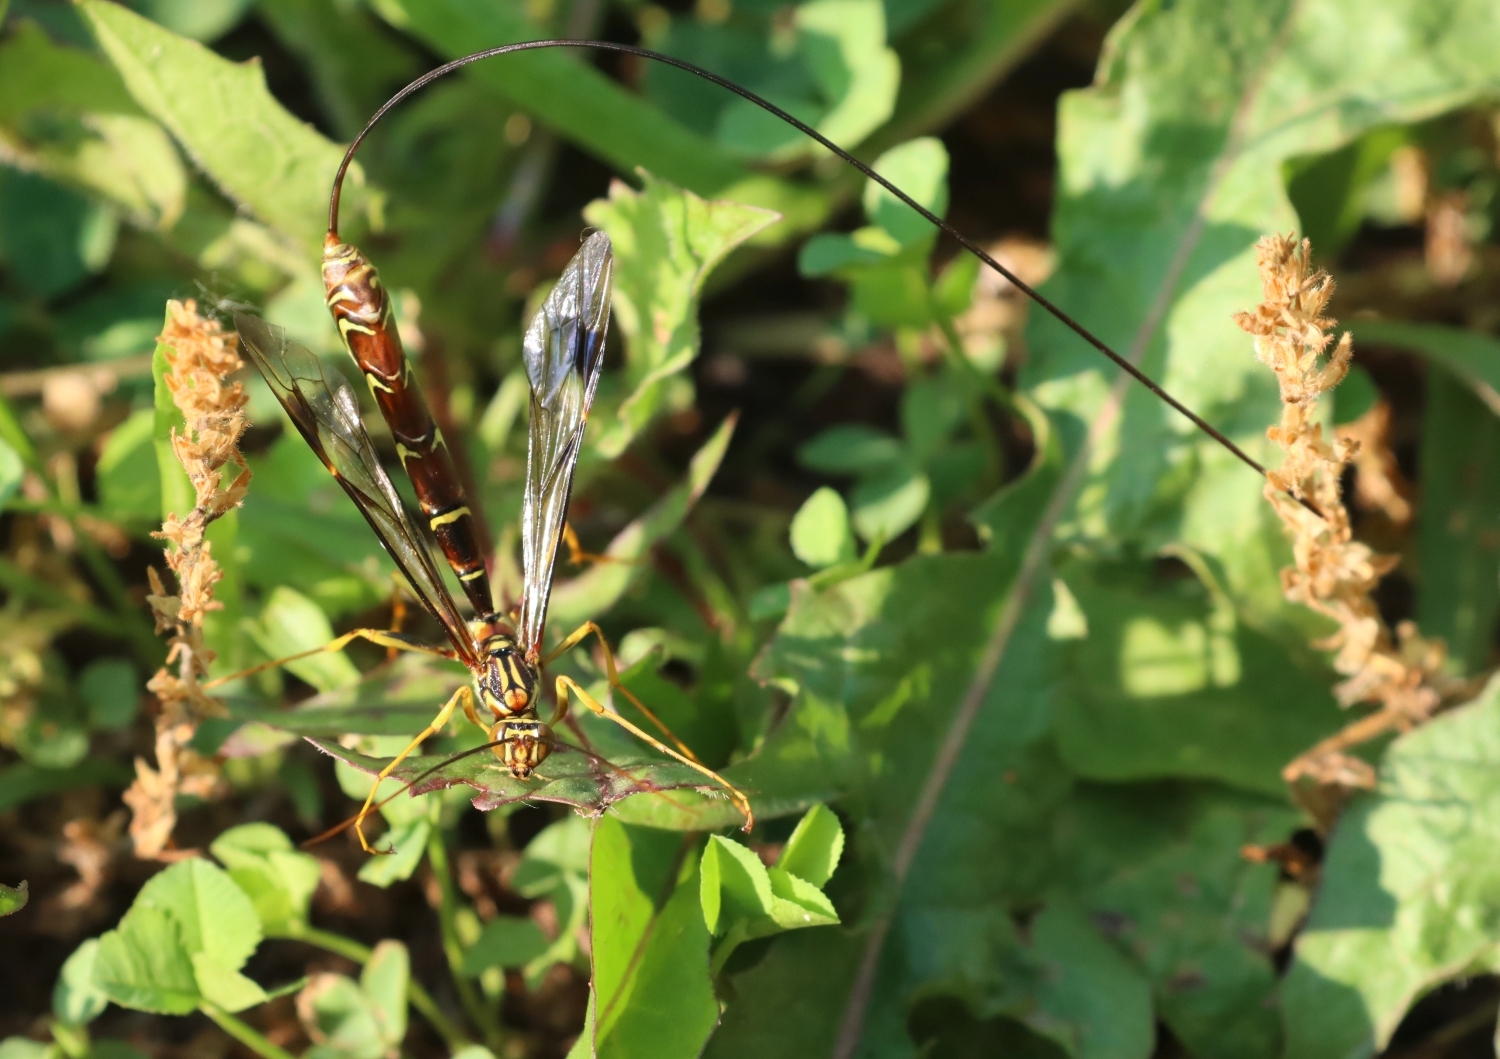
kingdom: Animalia
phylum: Arthropoda
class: Insecta
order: Hymenoptera
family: Ichneumonidae
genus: Megarhyssa
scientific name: Megarhyssa macrura
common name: Long-tailed giant ichneumonid wasp
